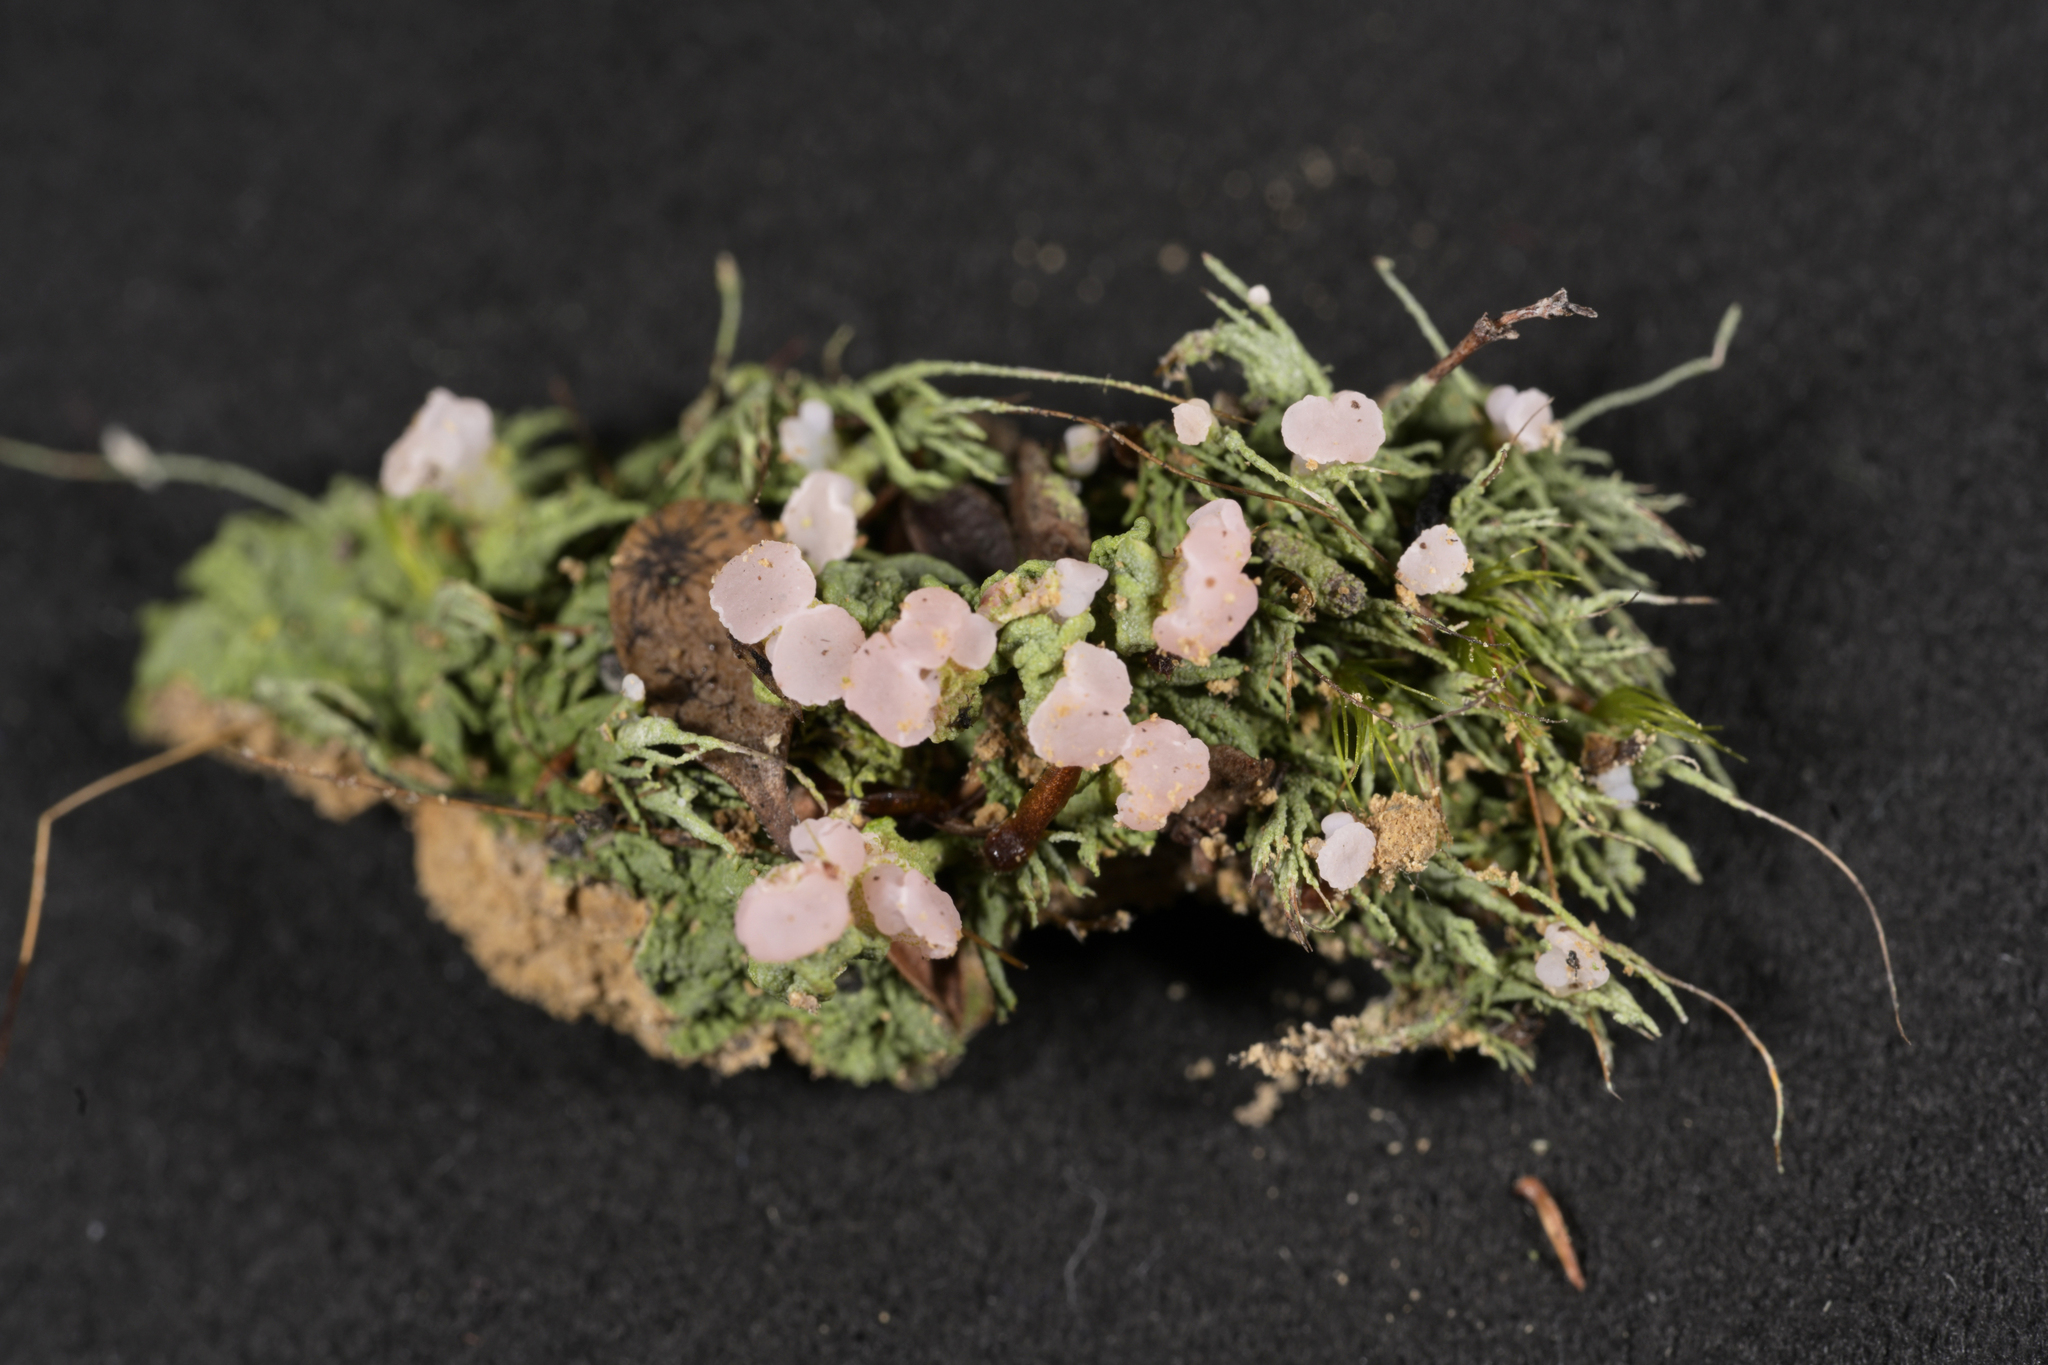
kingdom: Fungi
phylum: Ascomycota
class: Lecanoromycetes
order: Baeomycetales
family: Baeomycetaceae
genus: Baeomyces
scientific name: Baeomyces heteromorphus
